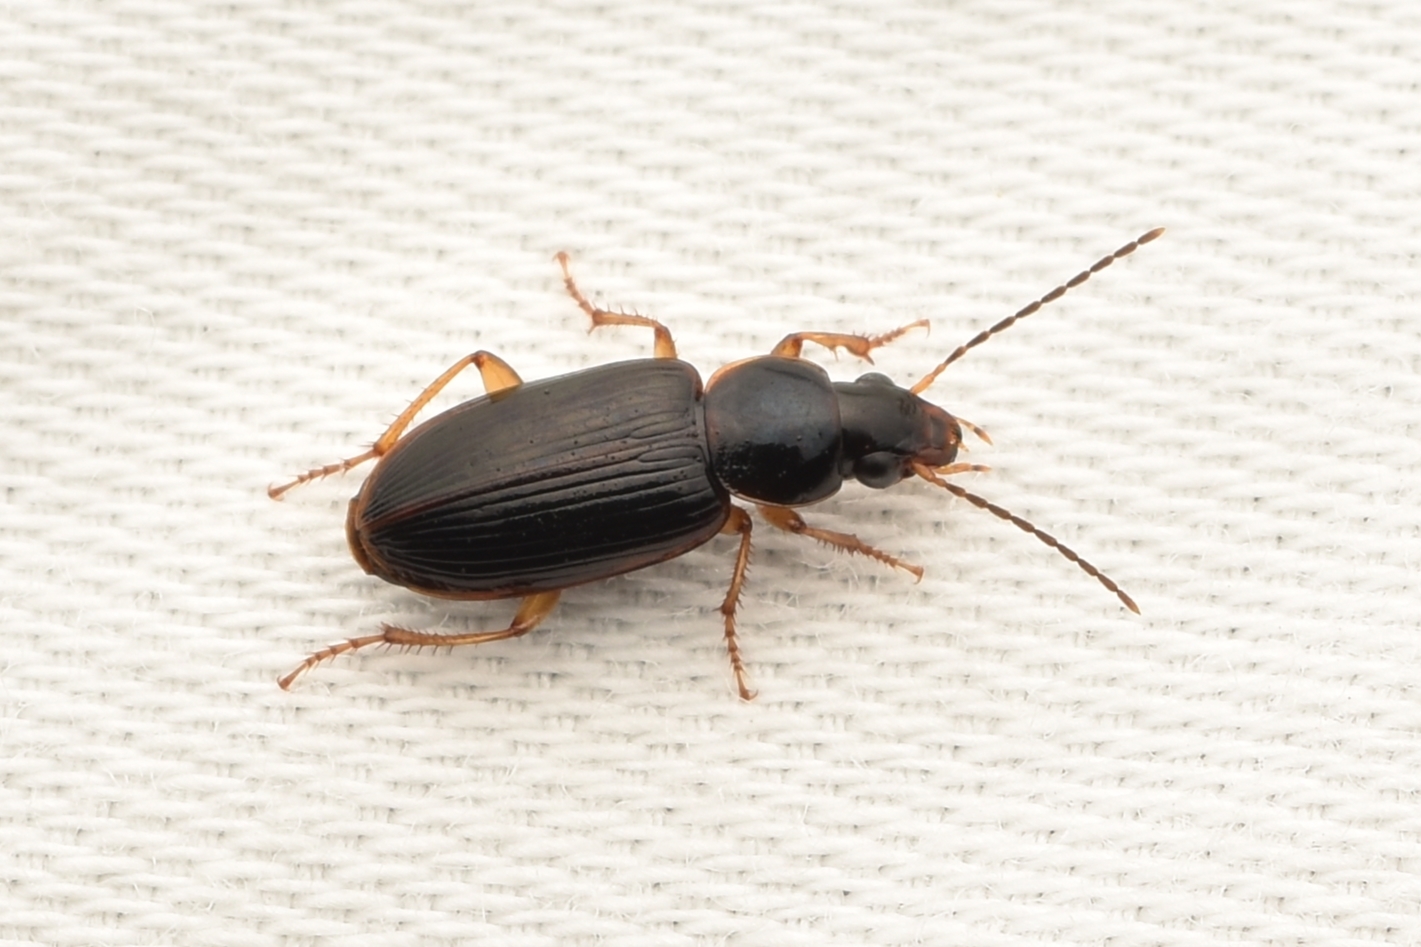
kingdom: Animalia
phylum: Arthropoda
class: Insecta
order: Coleoptera
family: Carabidae
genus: Stenolophus
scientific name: Stenolophus ochropezus
